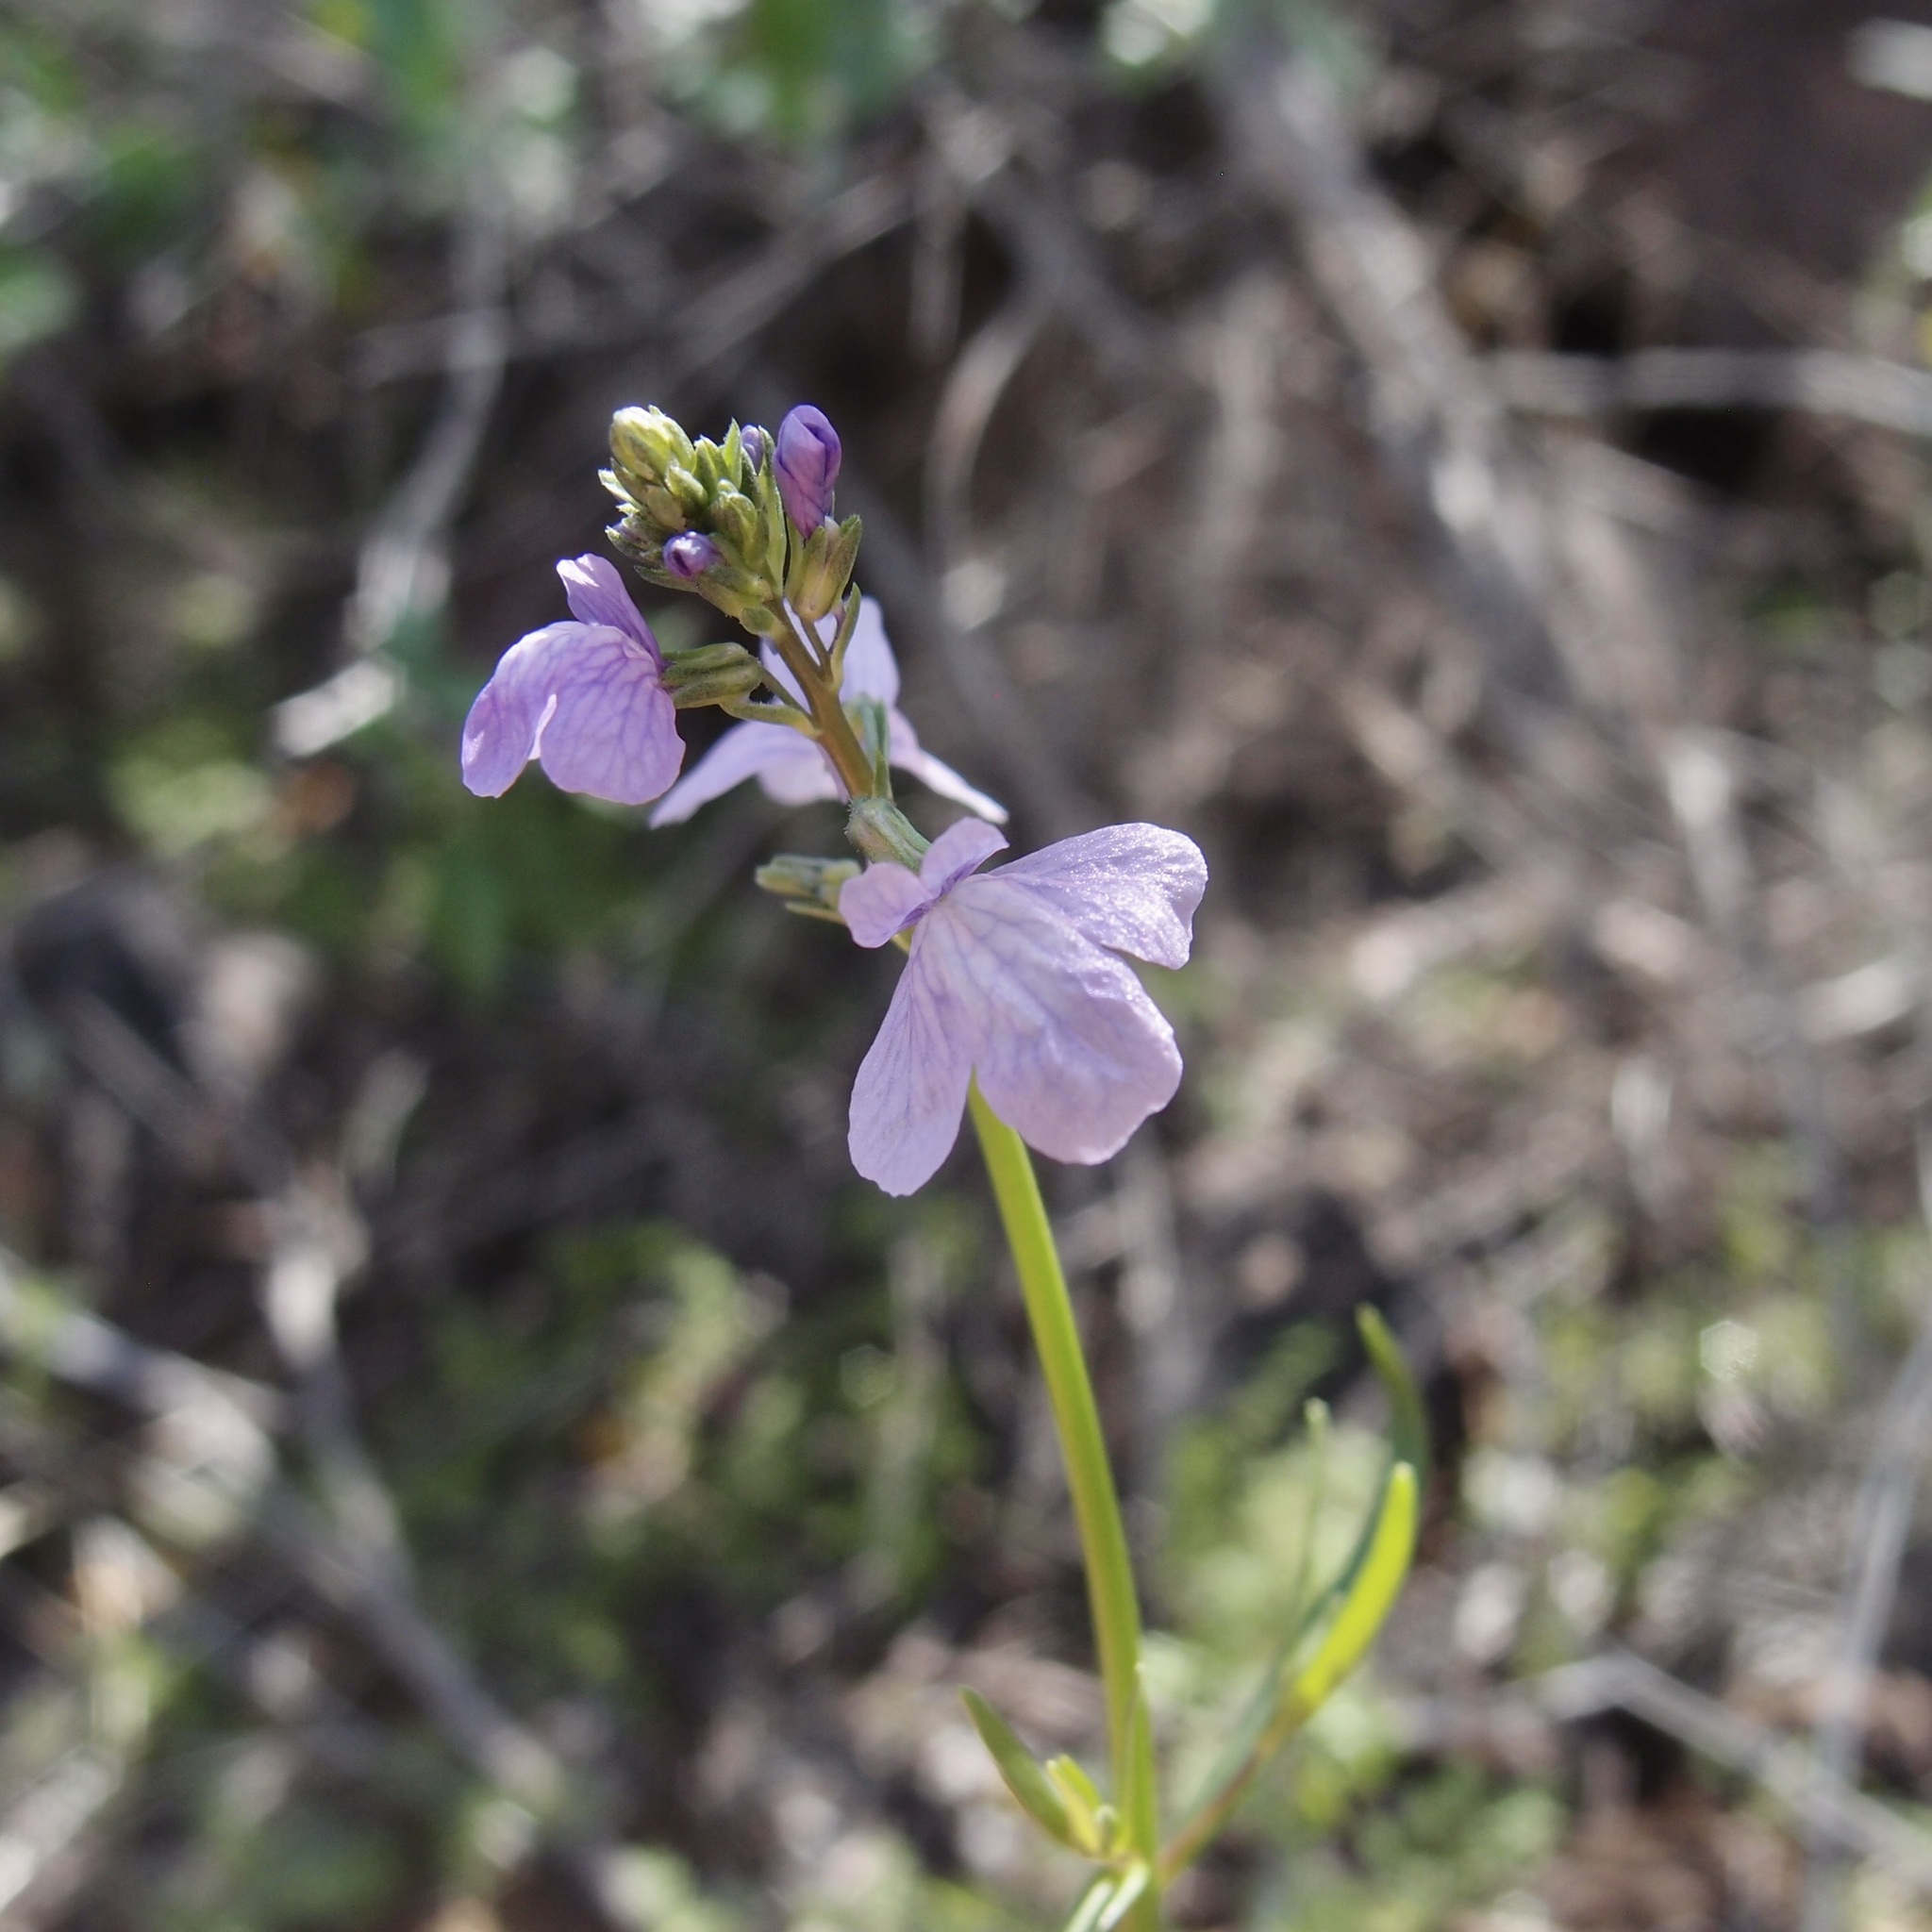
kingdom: Plantae
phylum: Tracheophyta
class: Magnoliopsida
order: Lamiales
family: Plantaginaceae
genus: Nuttallanthus
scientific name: Nuttallanthus texanus
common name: Texas toadflax
